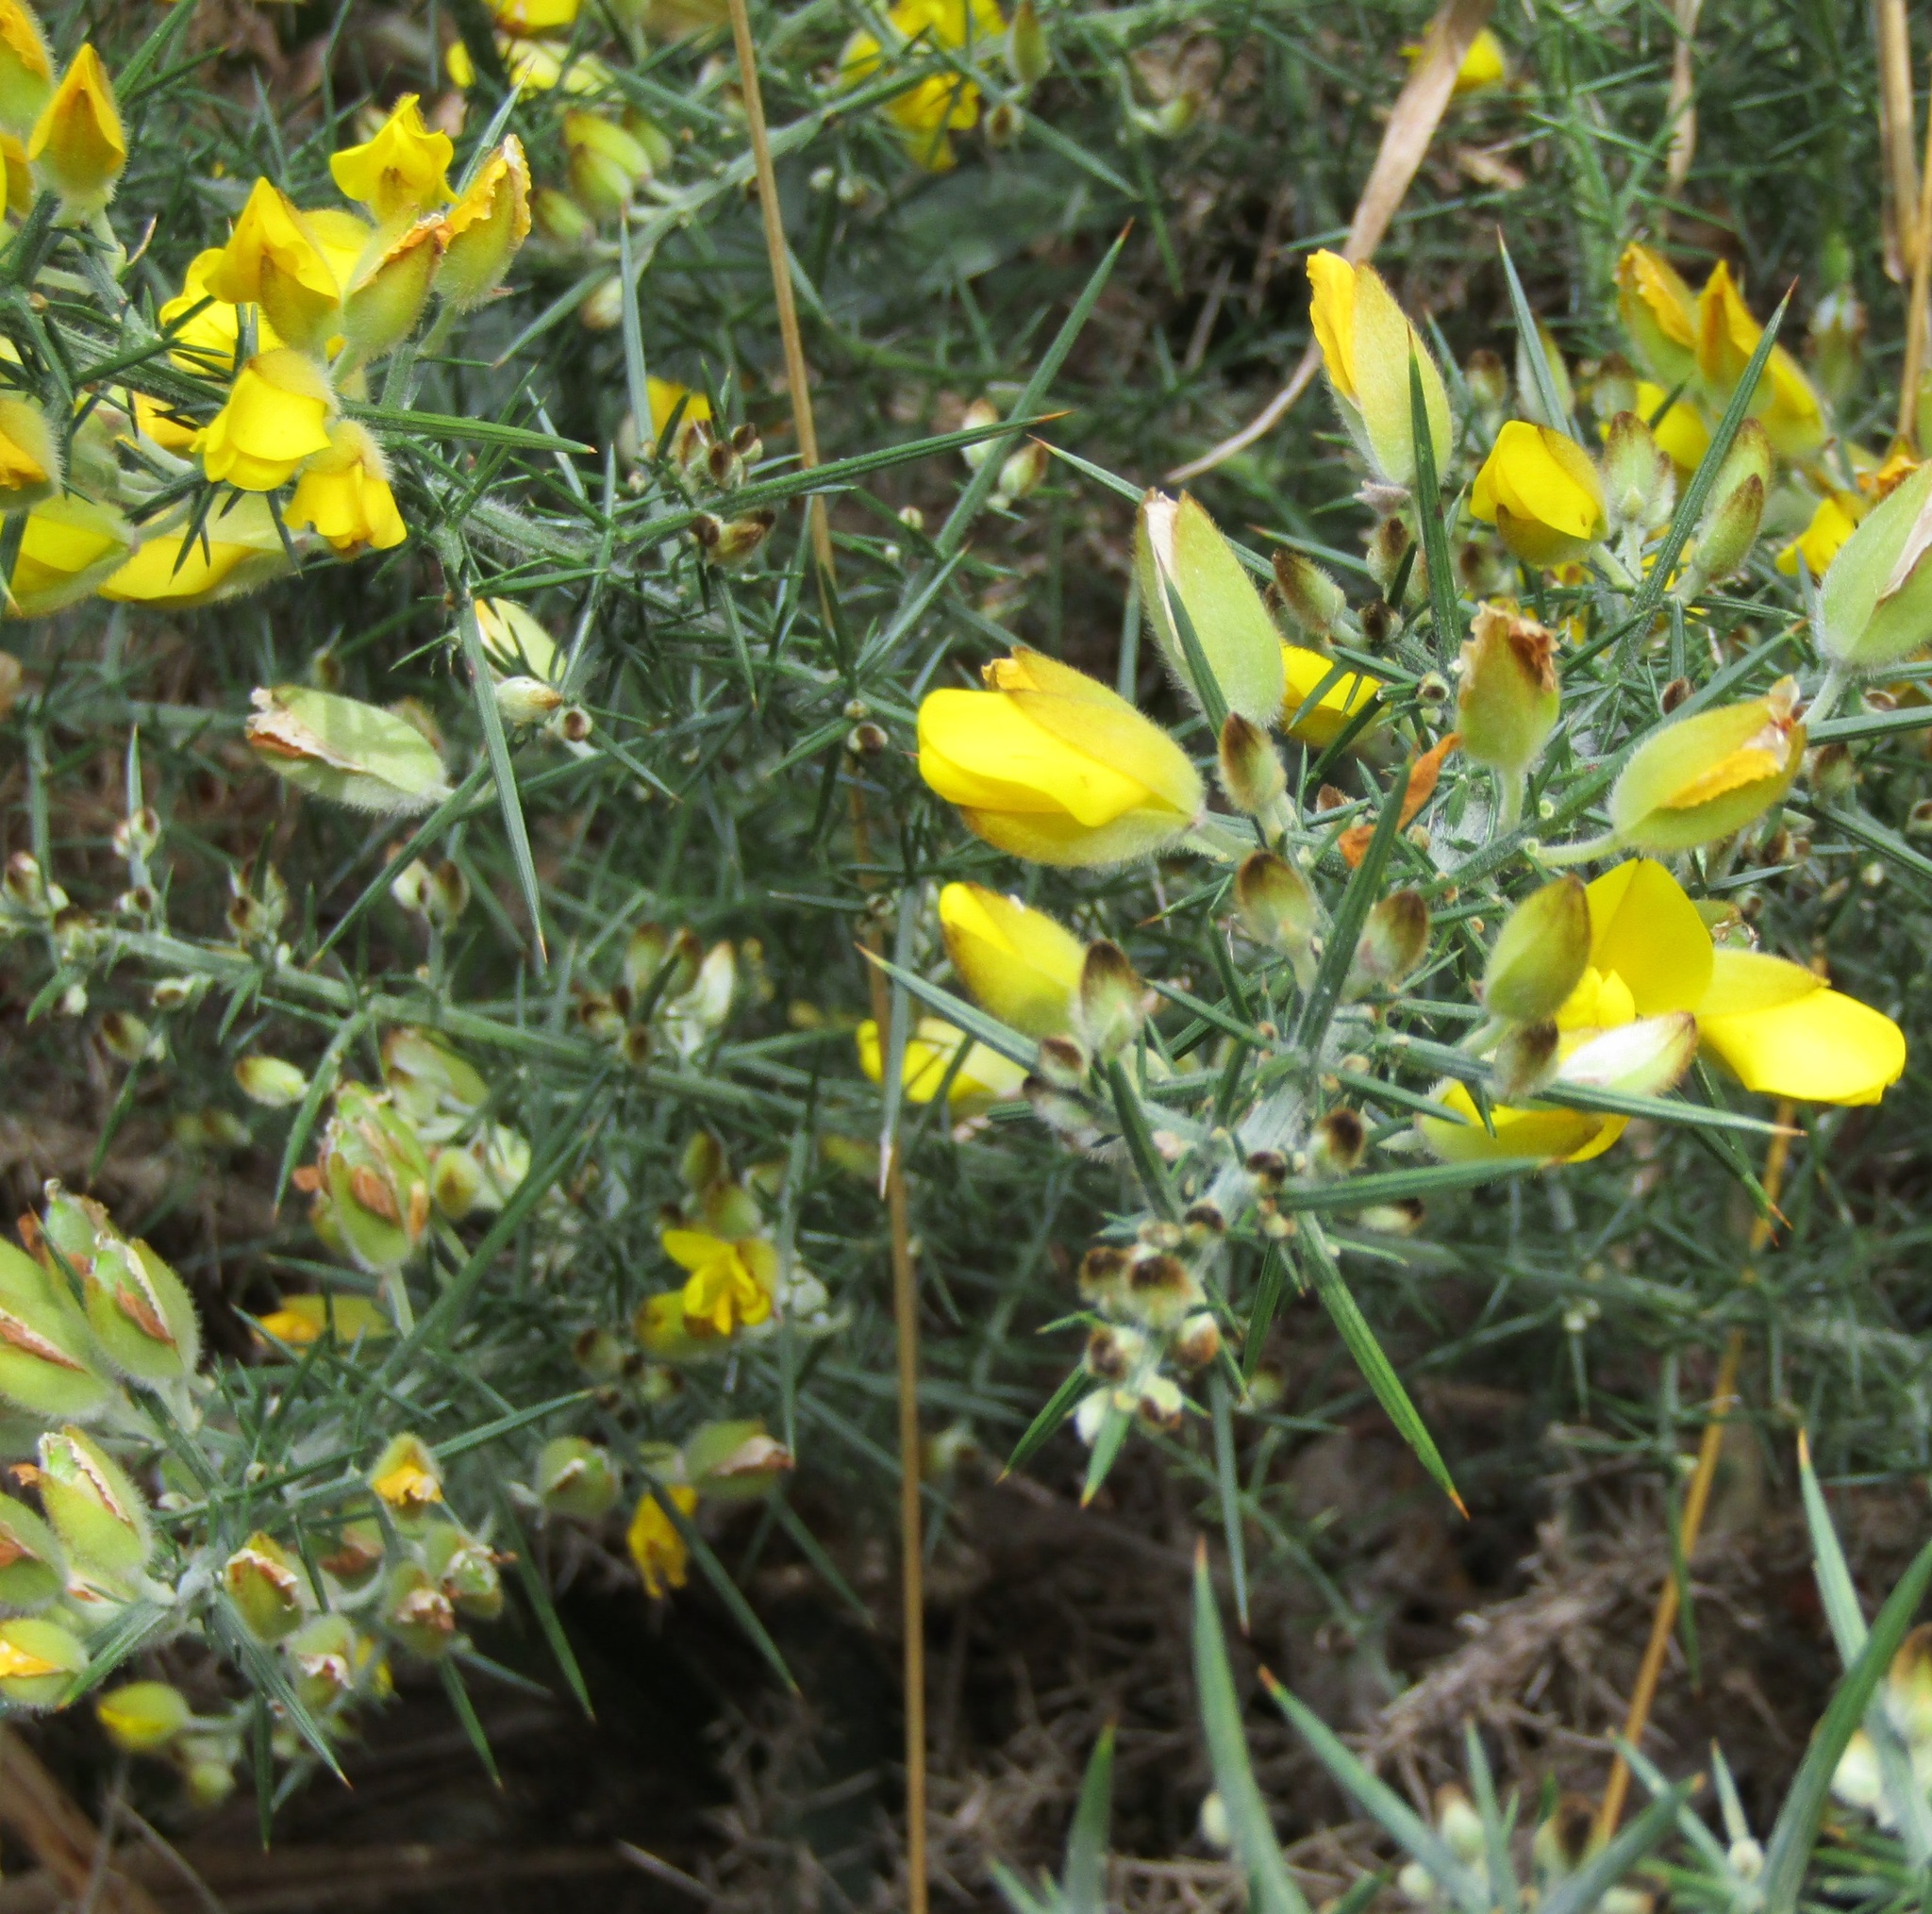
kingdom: Plantae
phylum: Tracheophyta
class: Magnoliopsida
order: Fabales
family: Fabaceae
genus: Ulex
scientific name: Ulex europaeus
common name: Common gorse
